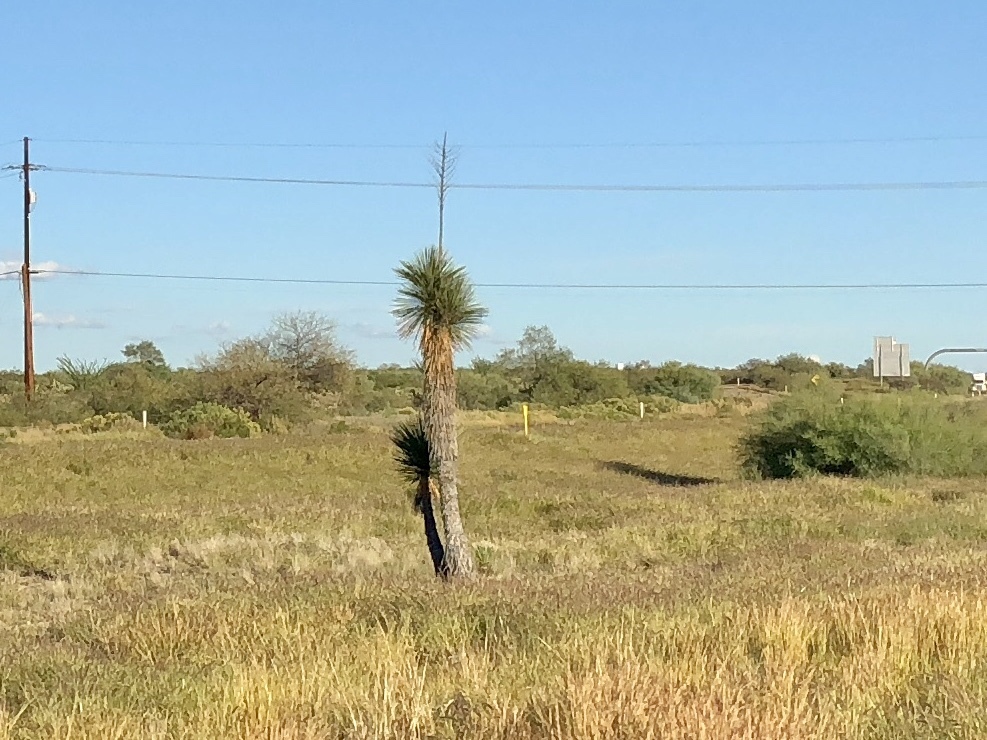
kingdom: Plantae
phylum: Tracheophyta
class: Liliopsida
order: Asparagales
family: Asparagaceae
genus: Yucca
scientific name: Yucca elata
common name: Palmella
